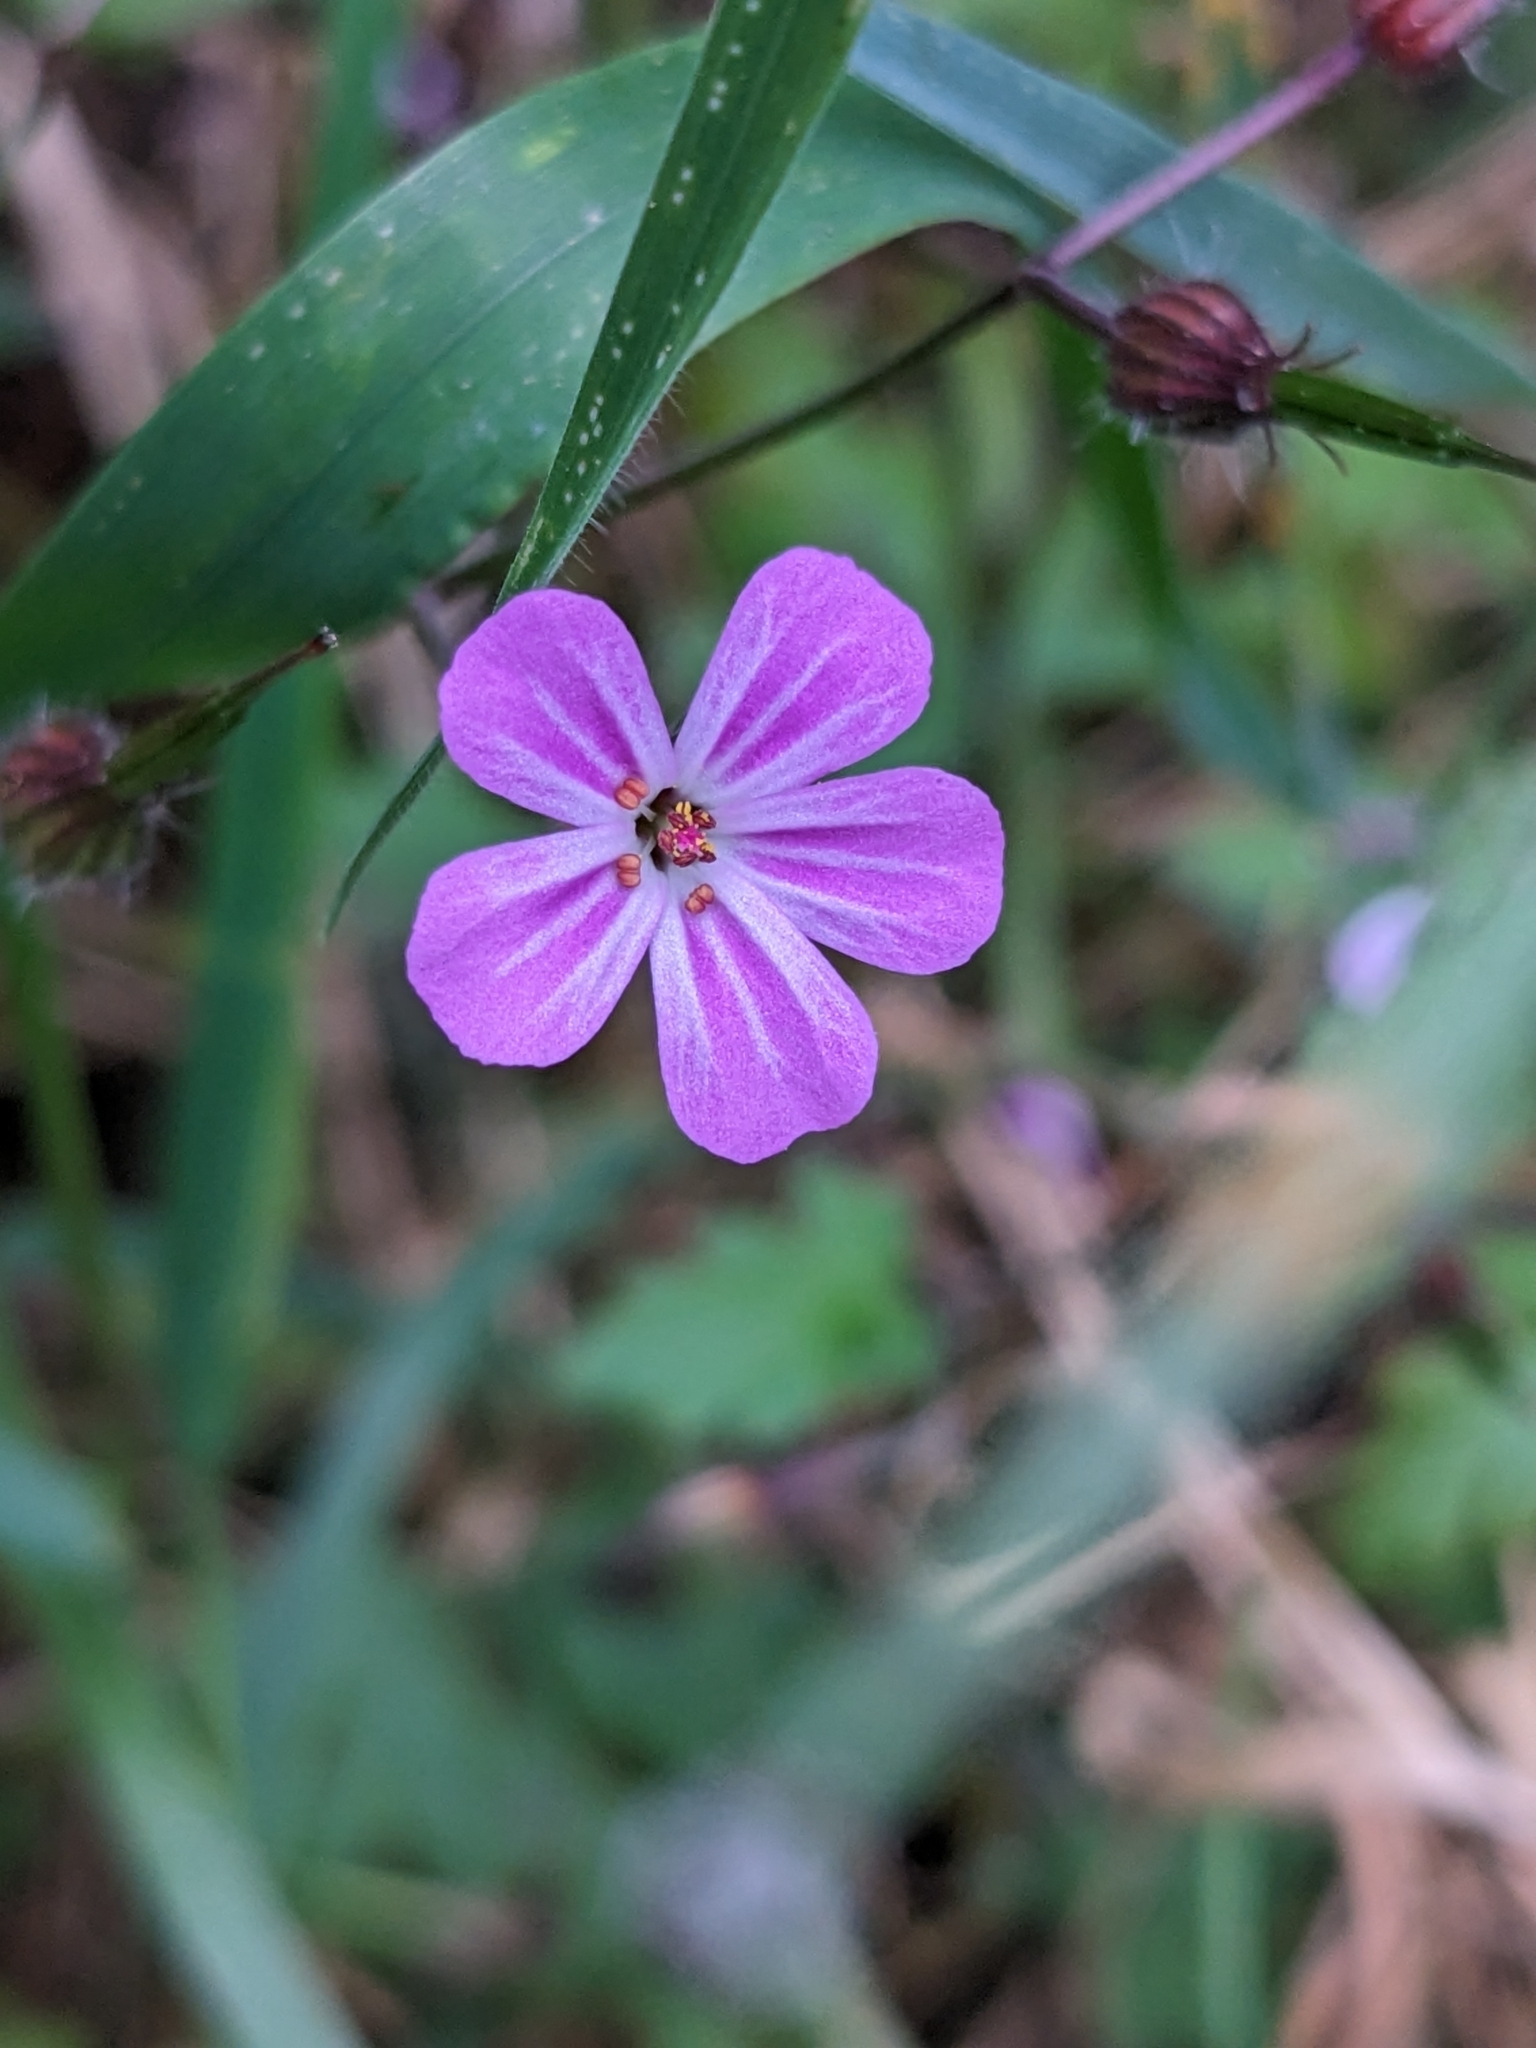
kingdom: Plantae
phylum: Tracheophyta
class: Magnoliopsida
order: Geraniales
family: Geraniaceae
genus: Geranium
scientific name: Geranium robertianum
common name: Herb-robert
